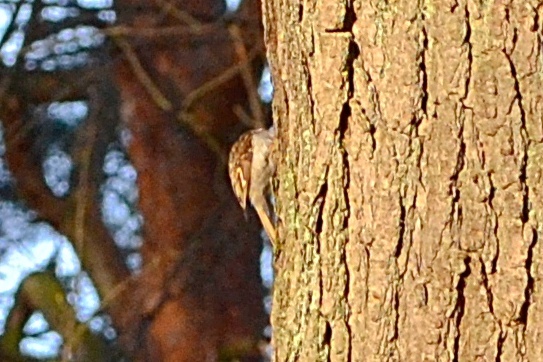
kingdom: Animalia
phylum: Chordata
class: Aves
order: Passeriformes
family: Certhiidae
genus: Certhia
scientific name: Certhia familiaris
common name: Eurasian treecreeper
